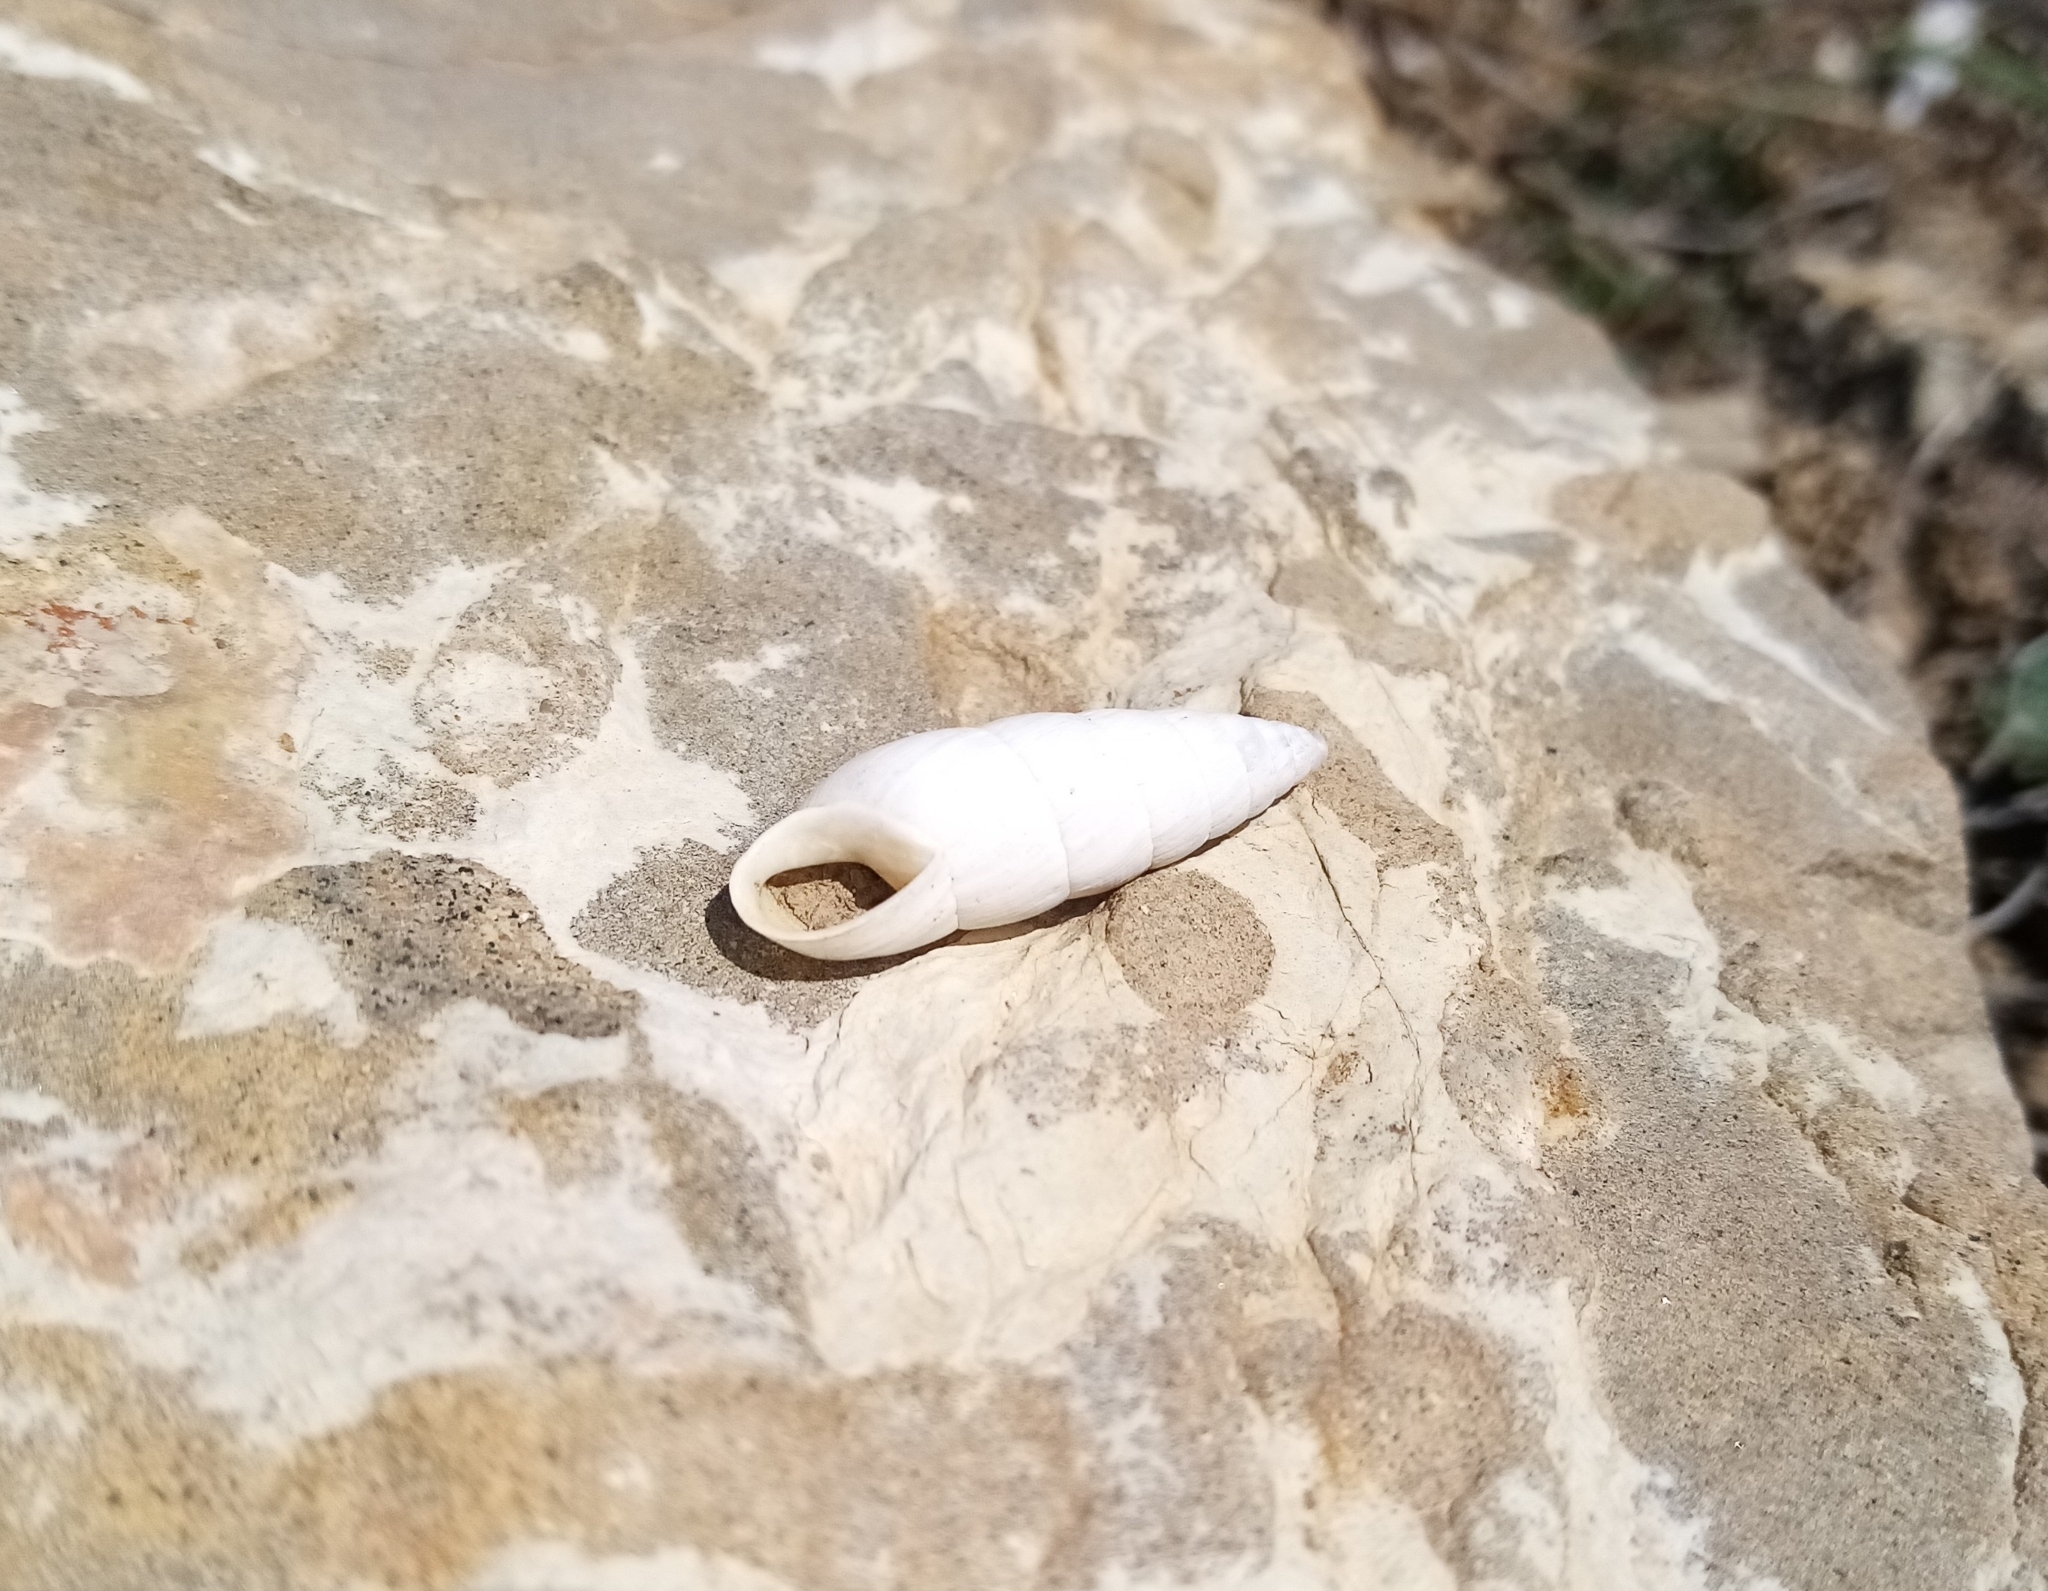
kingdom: Animalia
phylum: Mollusca
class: Gastropoda
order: Stylommatophora
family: Enidae
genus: Brephulopsis
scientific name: Brephulopsis cylindrica
